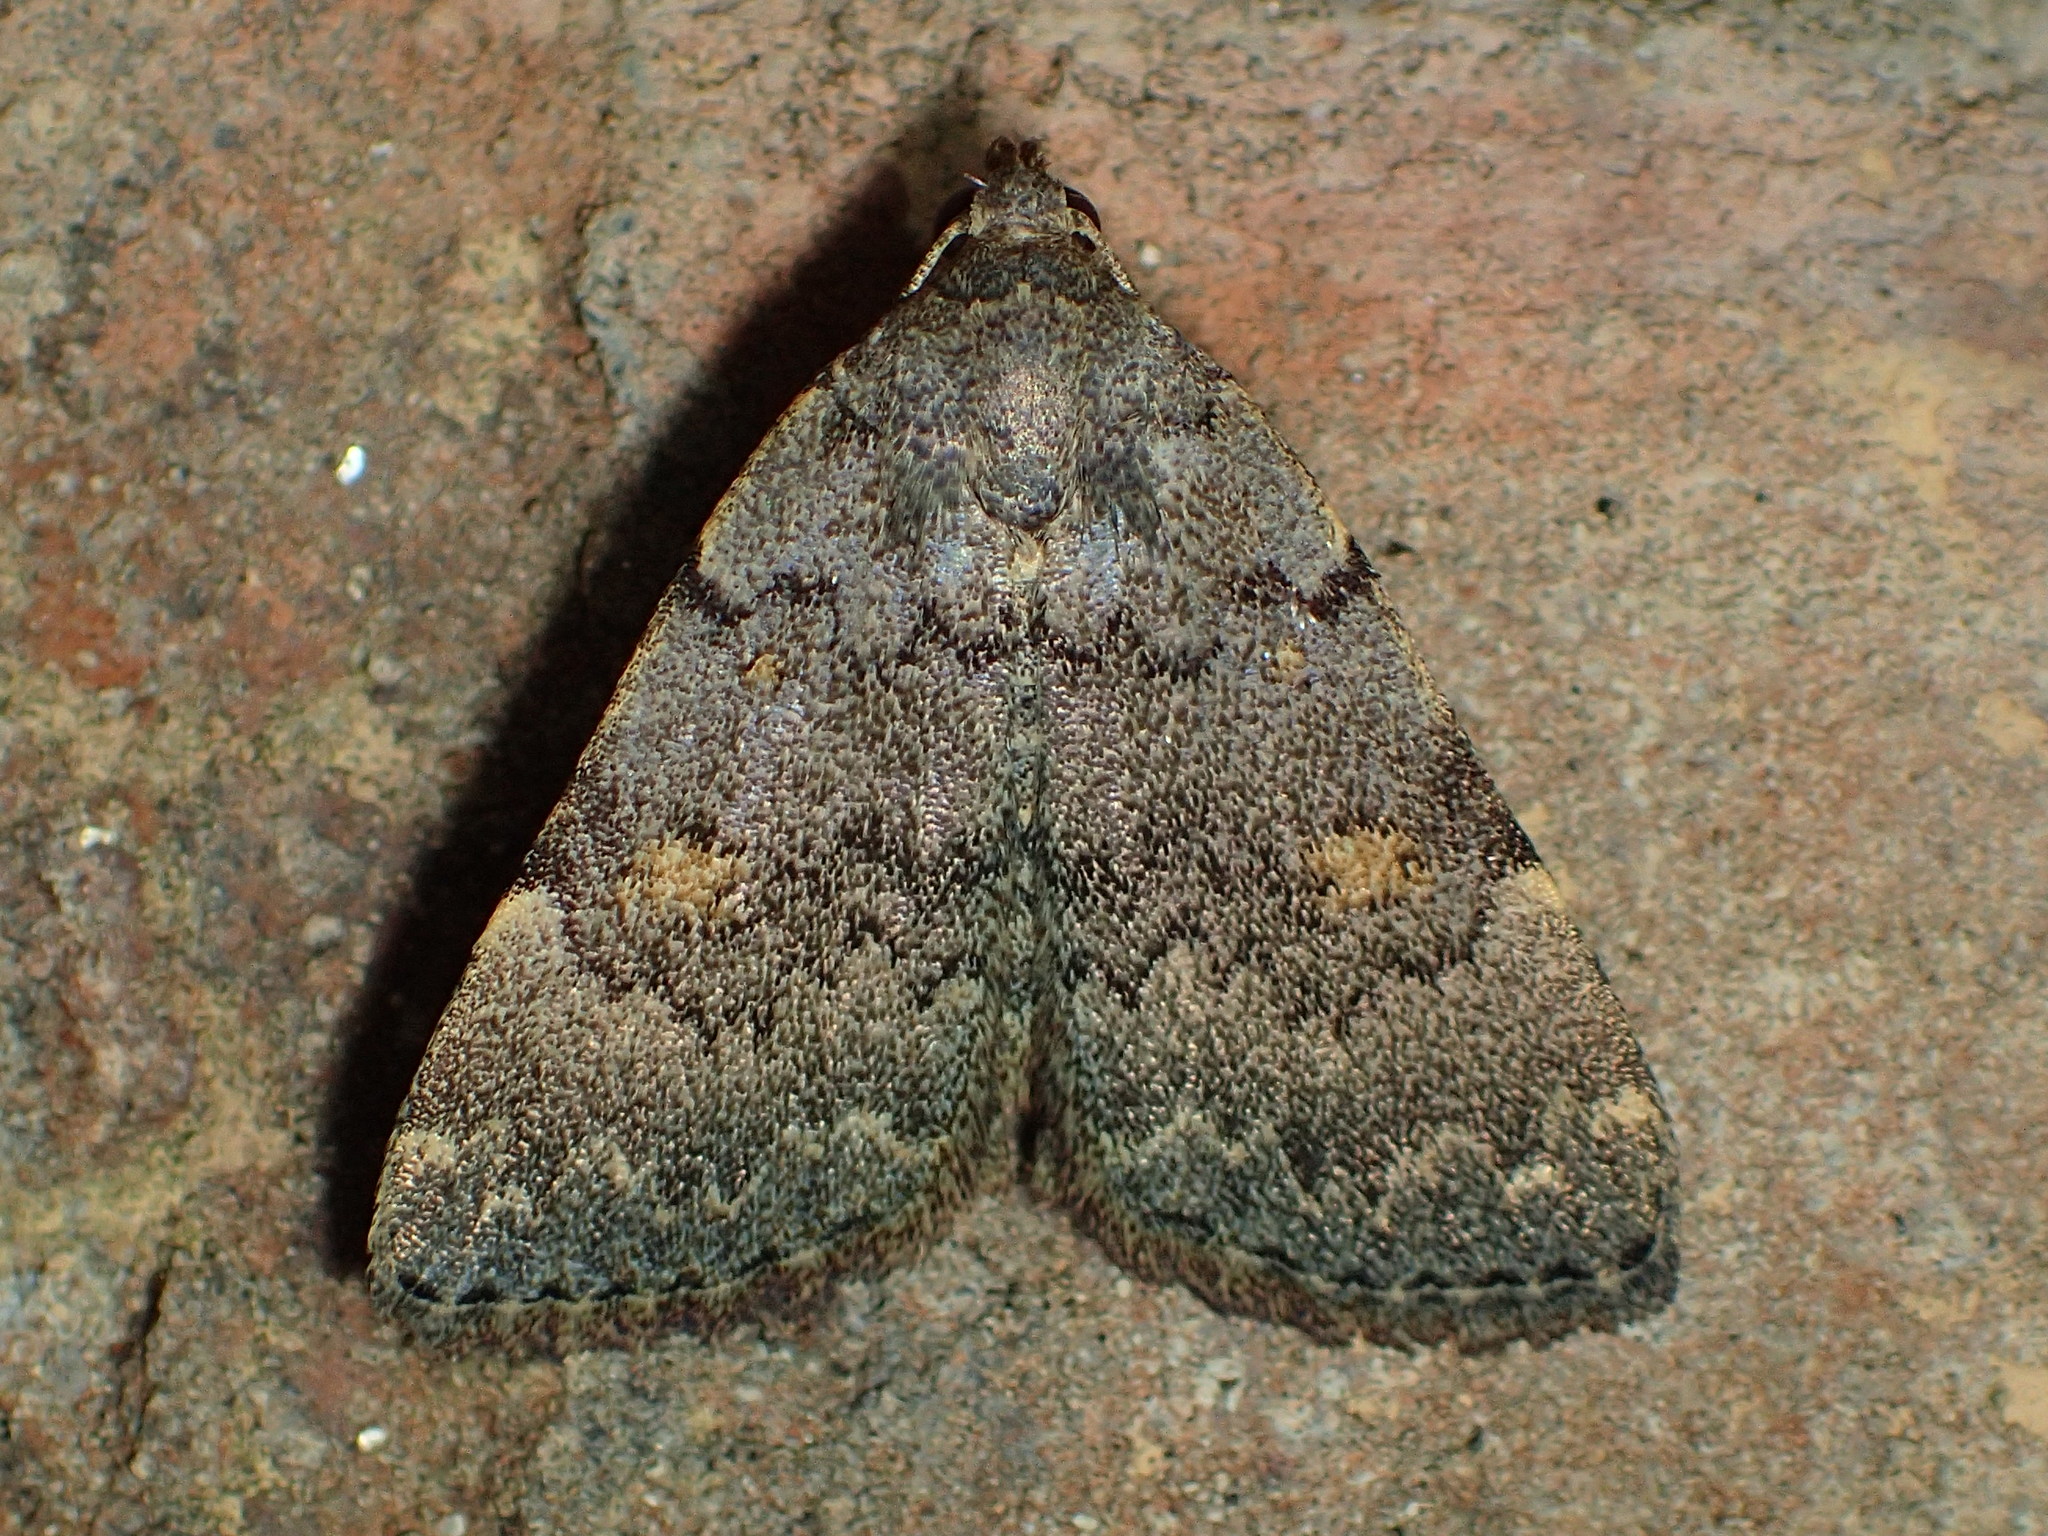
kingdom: Animalia
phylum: Arthropoda
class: Insecta
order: Lepidoptera
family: Erebidae
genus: Idia
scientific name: Idia aemula
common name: Common idia moth
